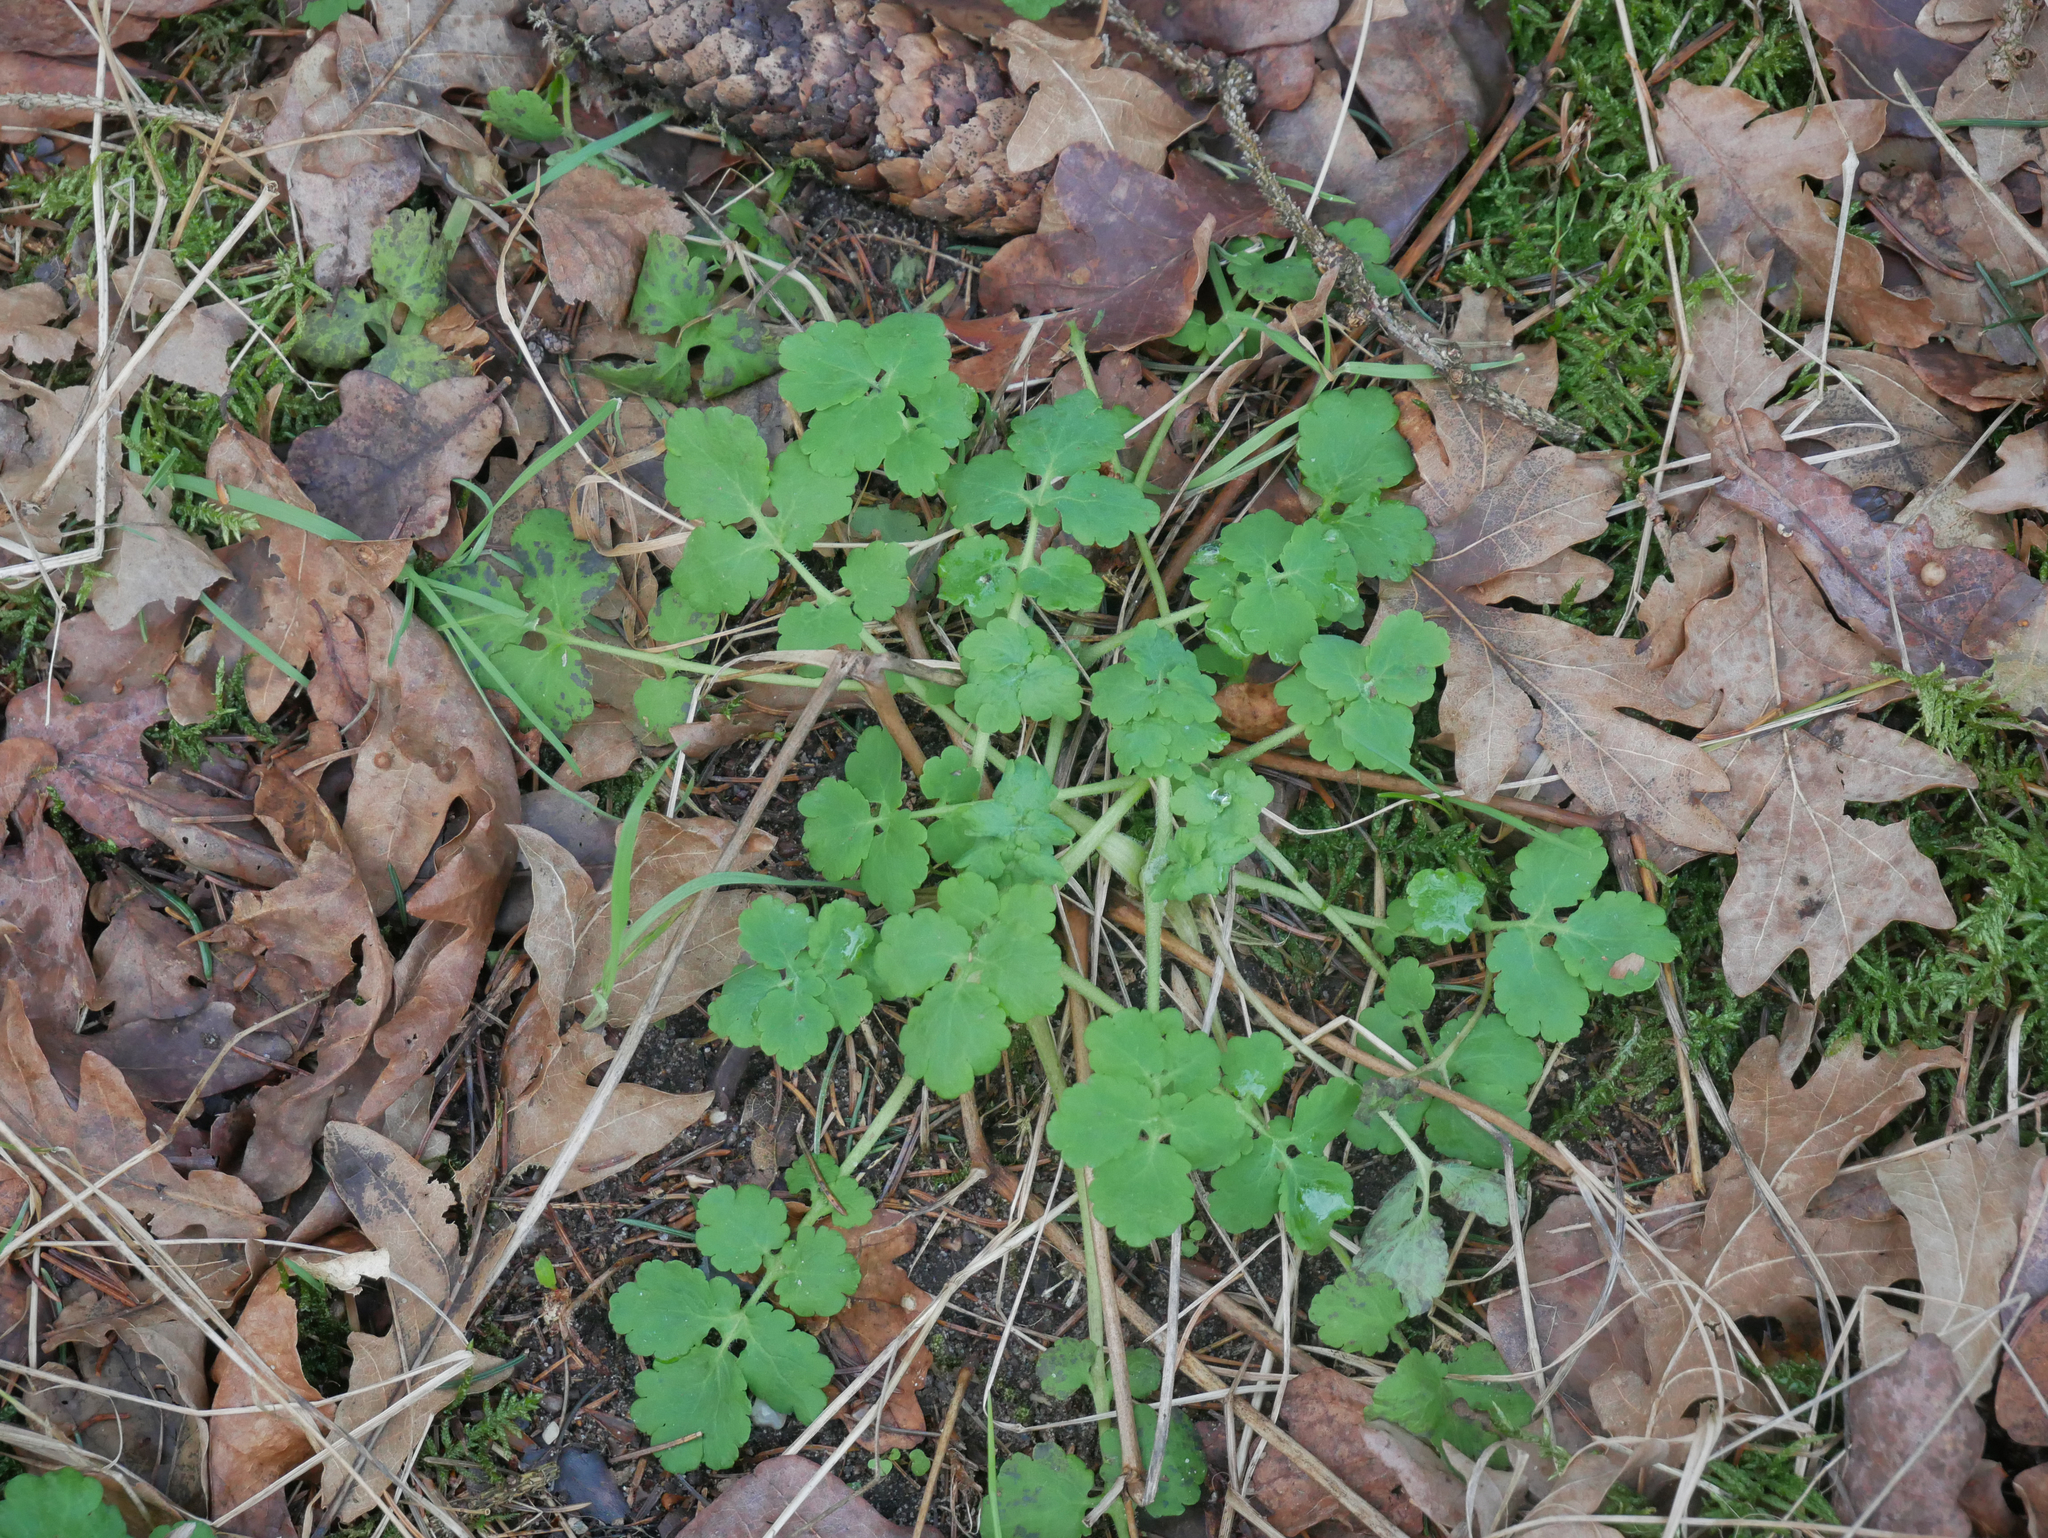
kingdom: Plantae
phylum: Tracheophyta
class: Magnoliopsida
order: Ranunculales
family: Papaveraceae
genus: Chelidonium
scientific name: Chelidonium majus
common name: Greater celandine
